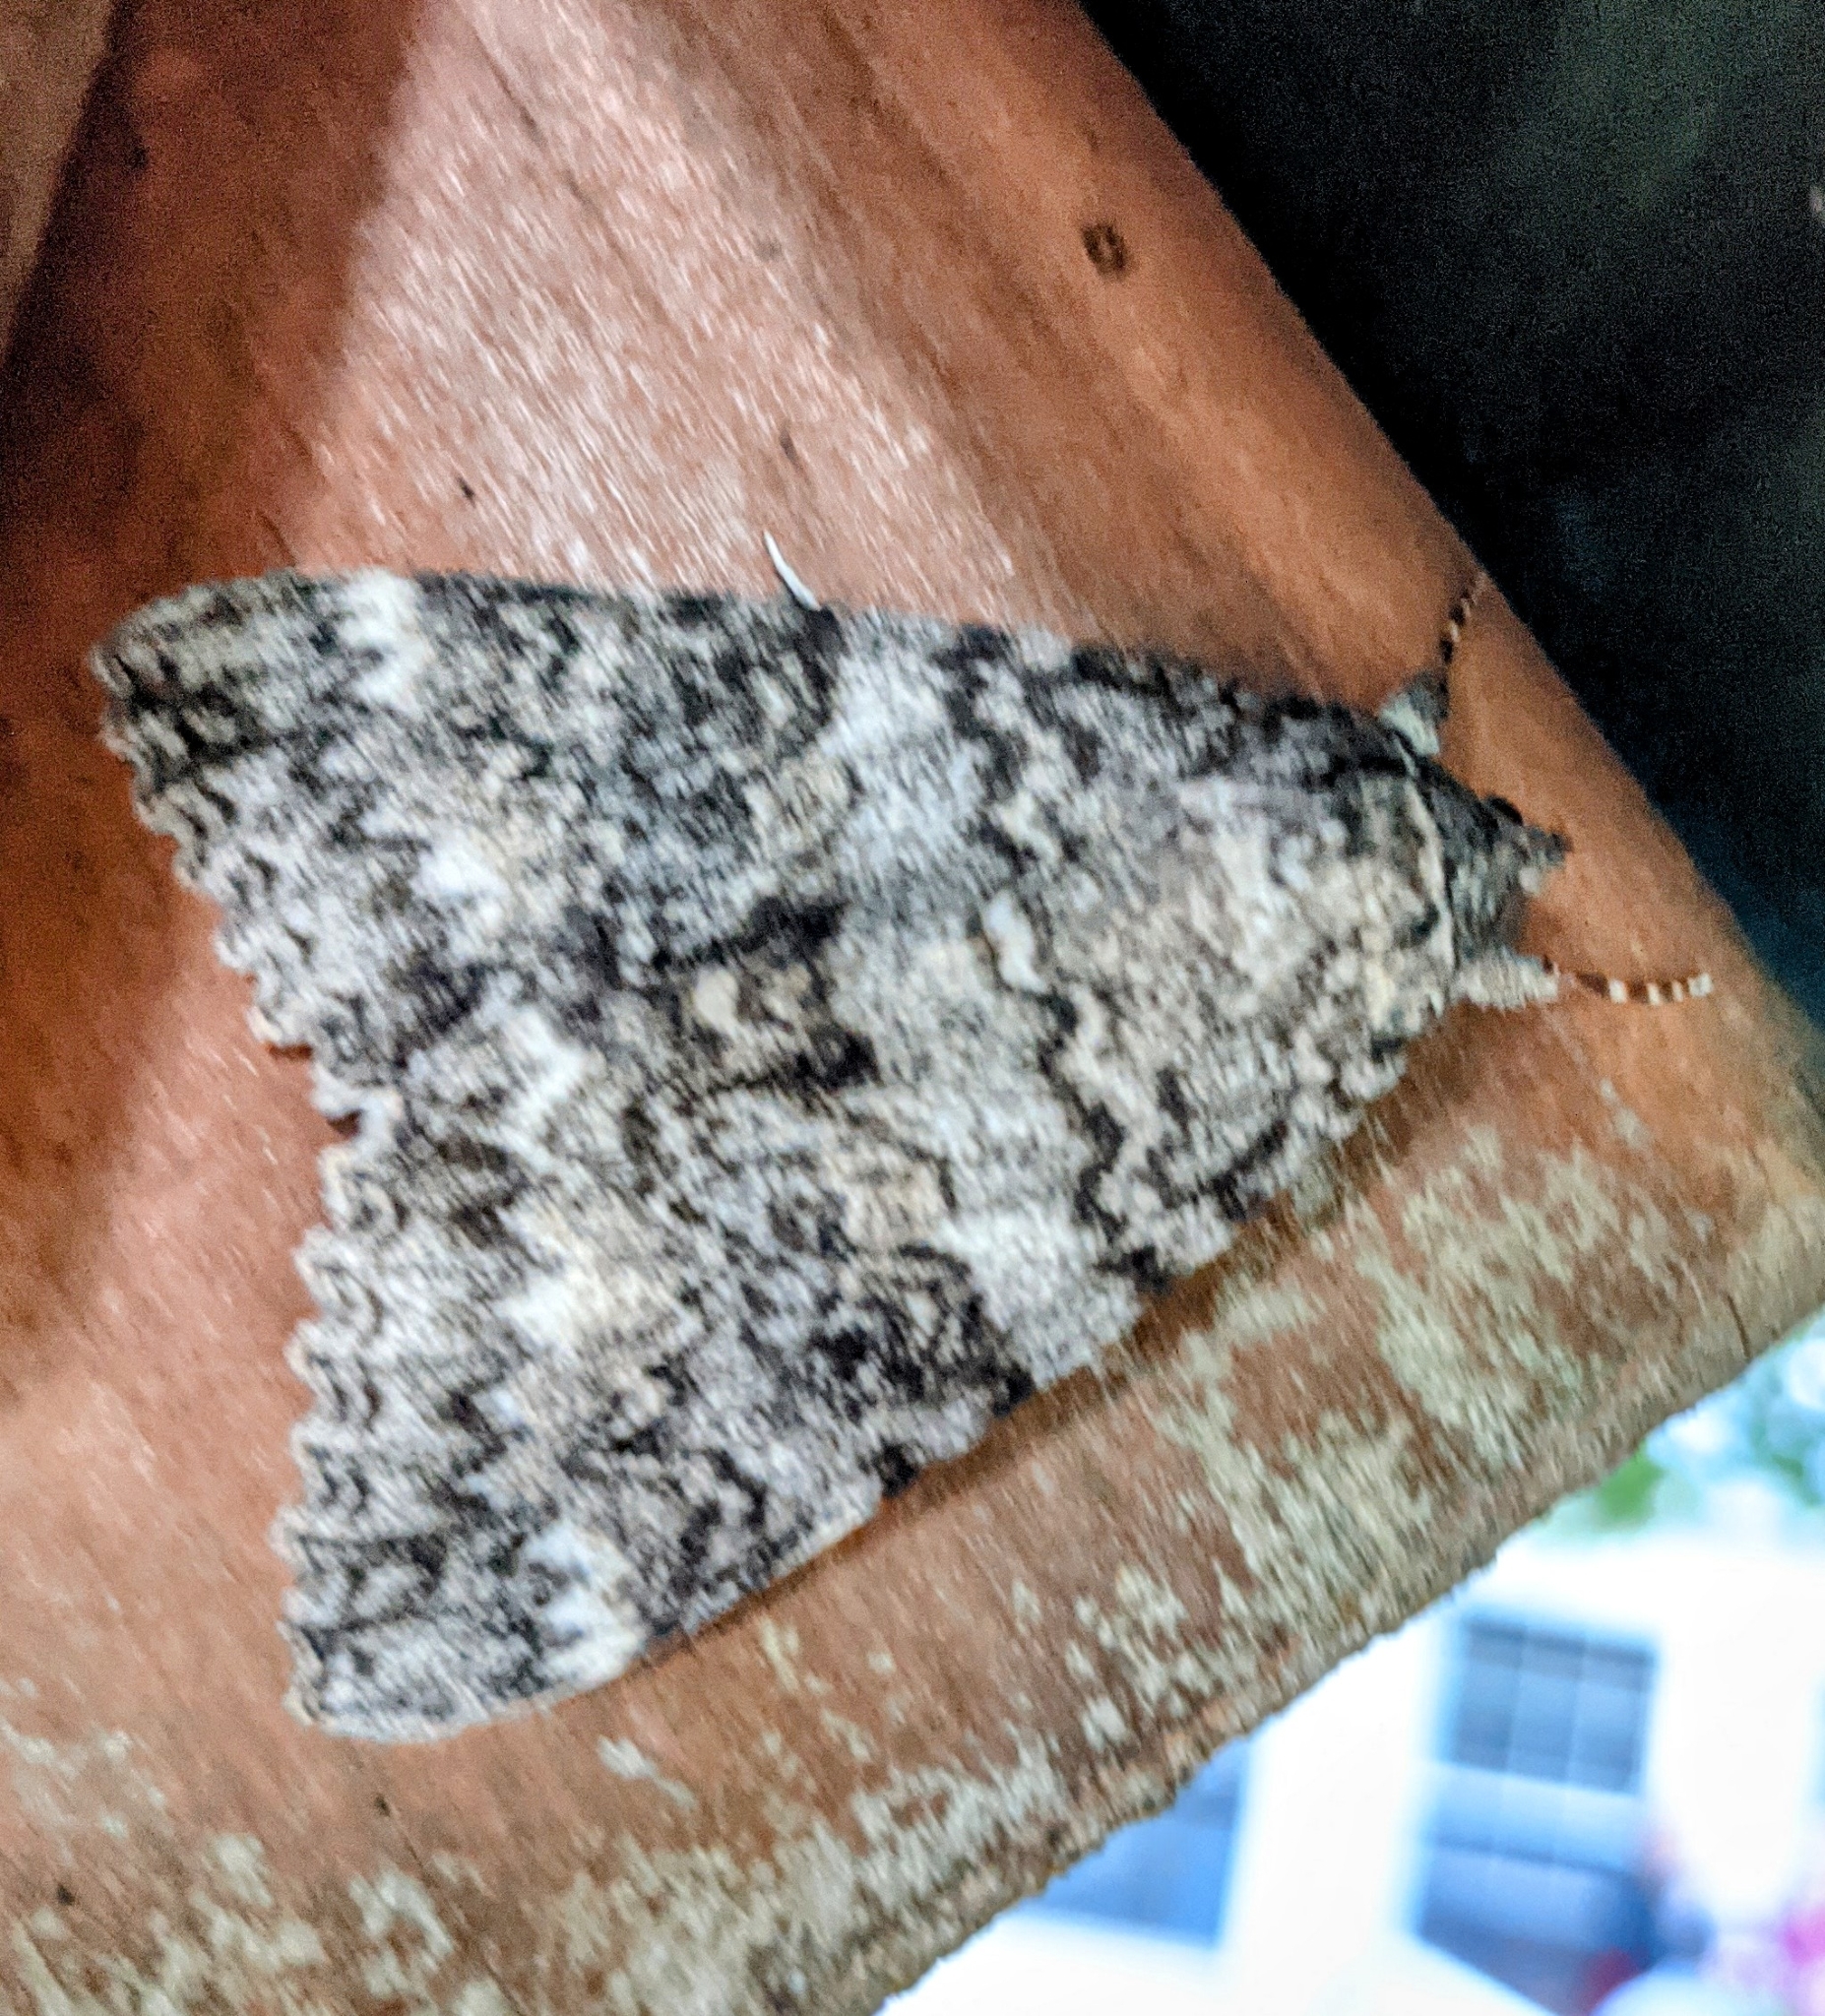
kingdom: Animalia
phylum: Arthropoda
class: Insecta
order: Lepidoptera
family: Erebidae
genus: Catocala
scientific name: Catocala unijuga
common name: Once-married underwing
